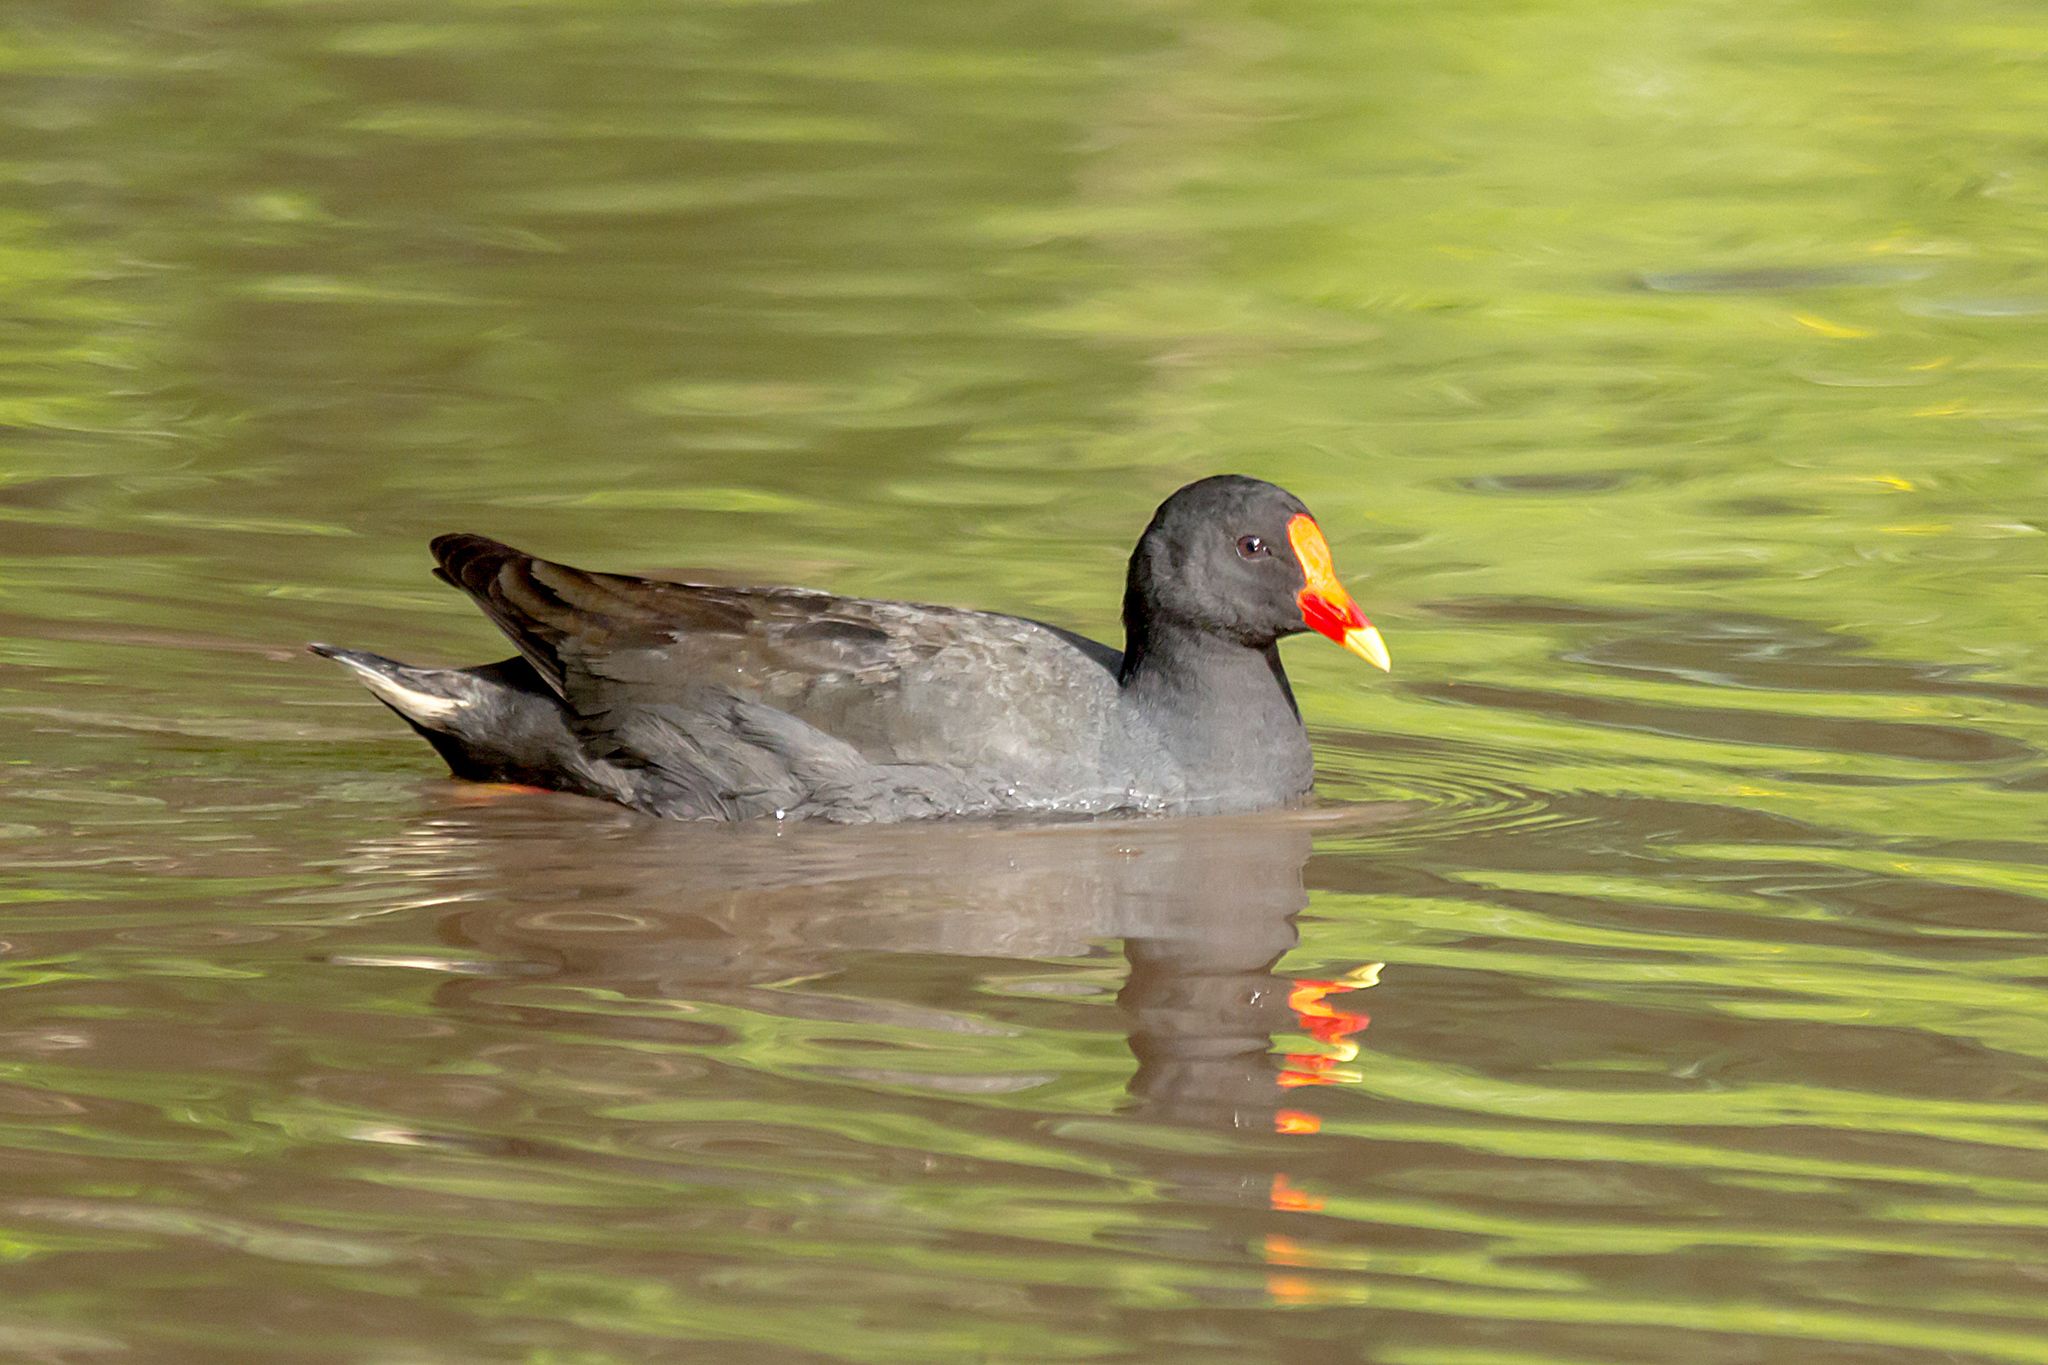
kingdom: Animalia
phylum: Chordata
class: Aves
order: Gruiformes
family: Rallidae
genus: Gallinula
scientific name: Gallinula tenebrosa
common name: Dusky moorhen
